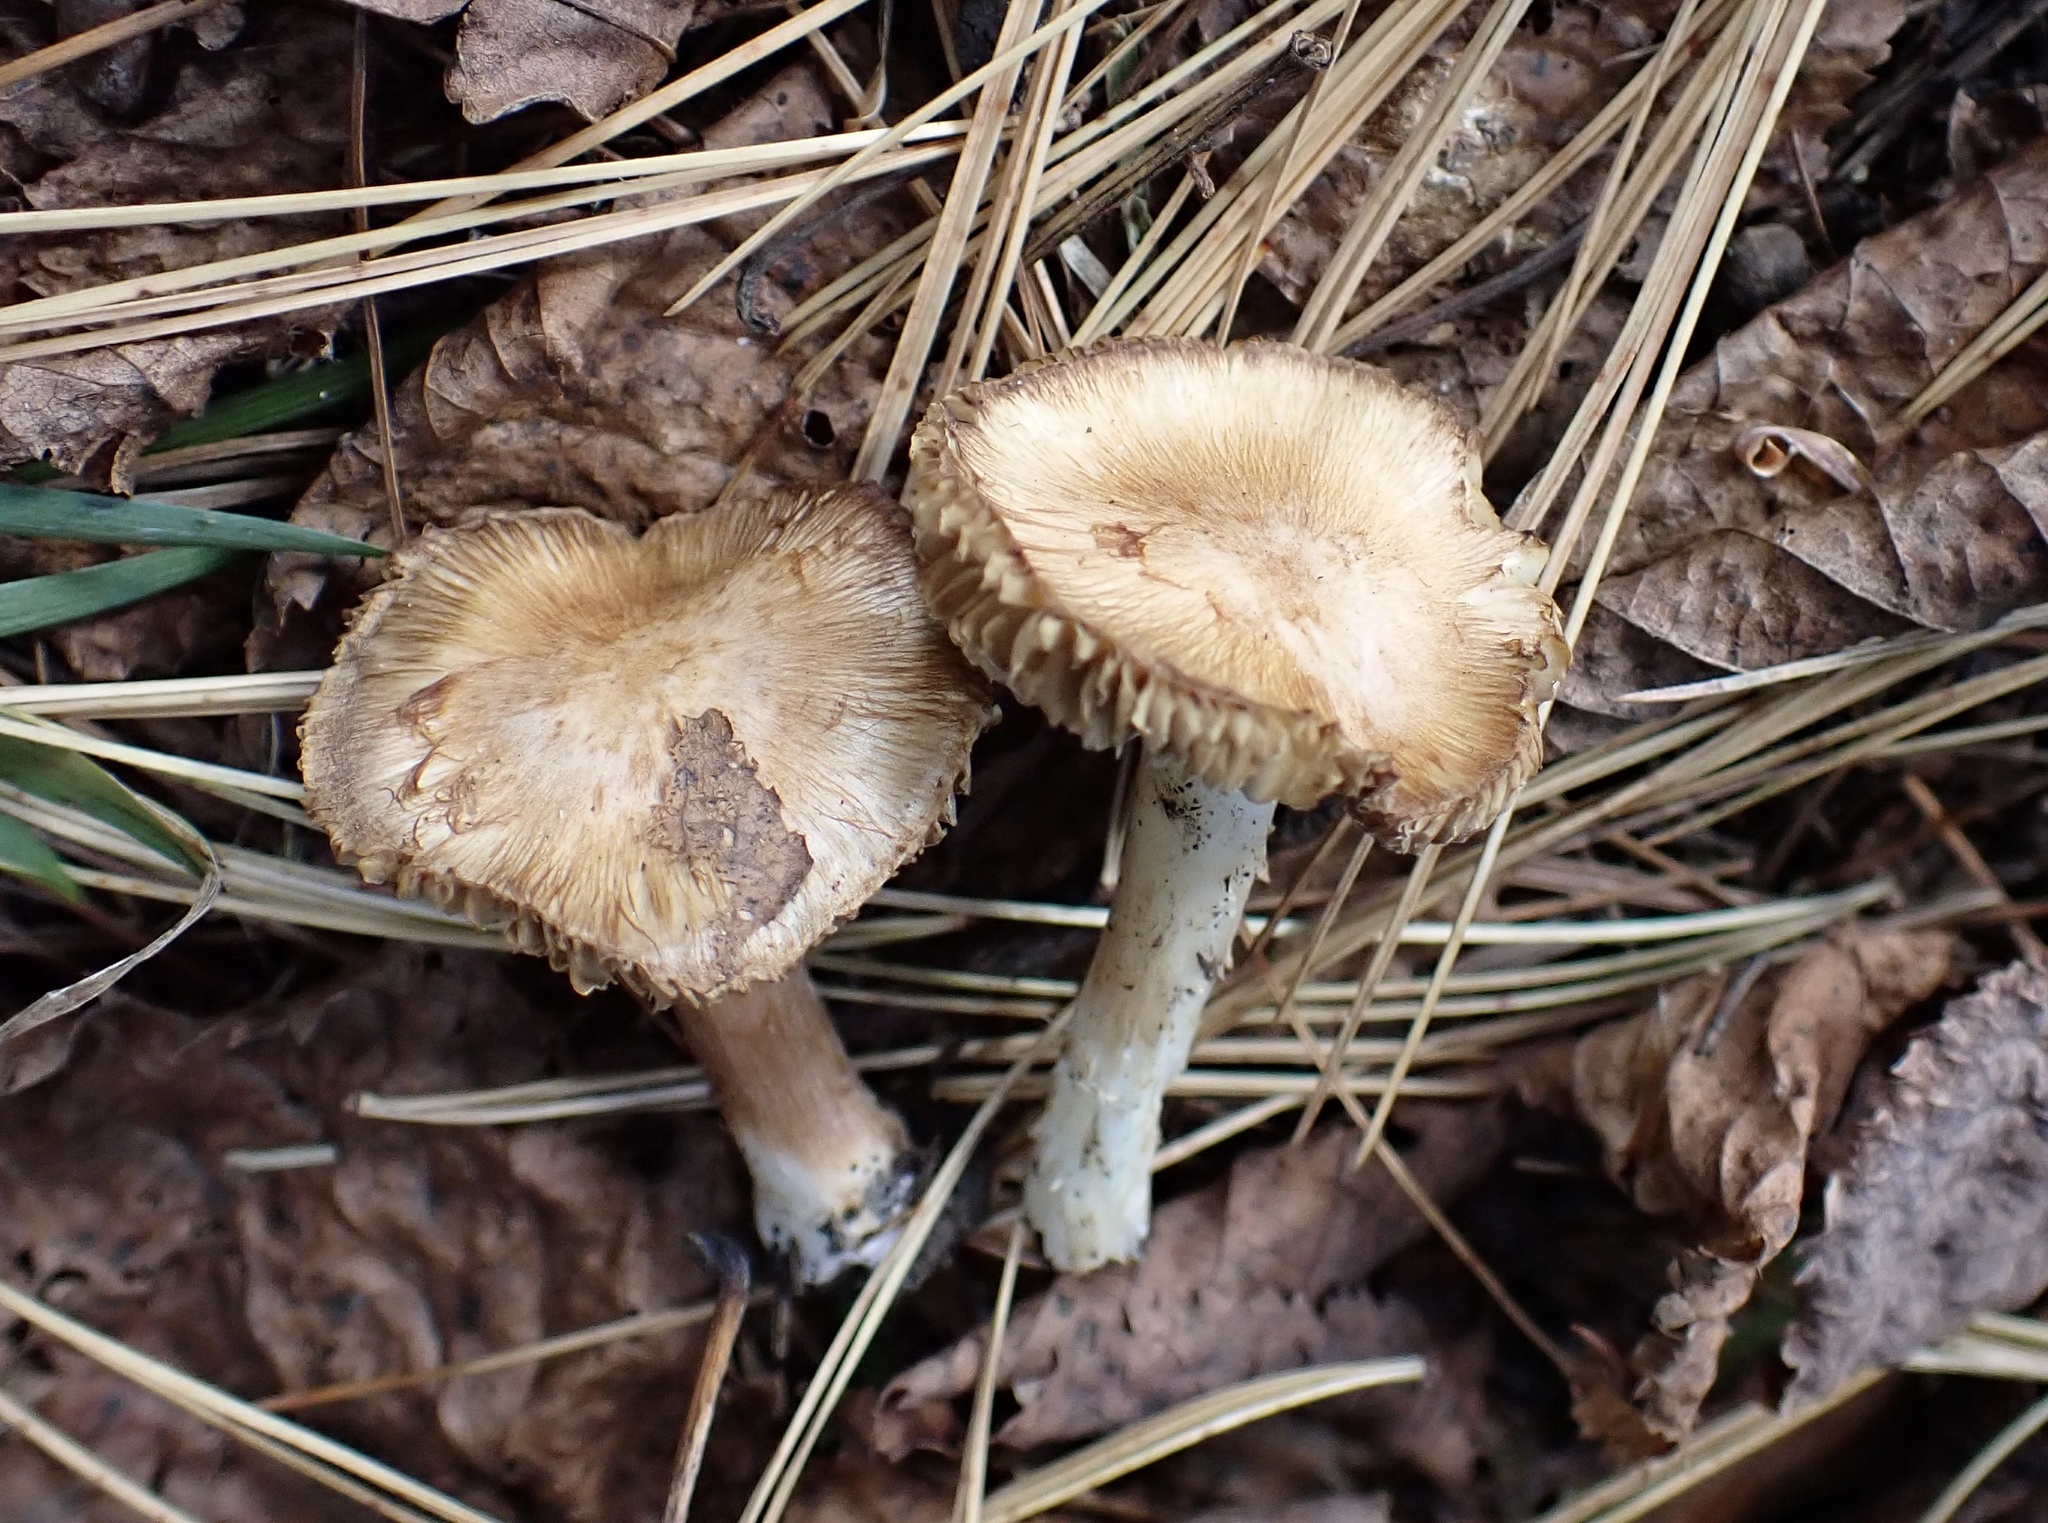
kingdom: Fungi
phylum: Basidiomycota
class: Agaricomycetes
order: Agaricales
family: Inocybaceae
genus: Inosperma
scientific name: Inosperma lanatodiscum
